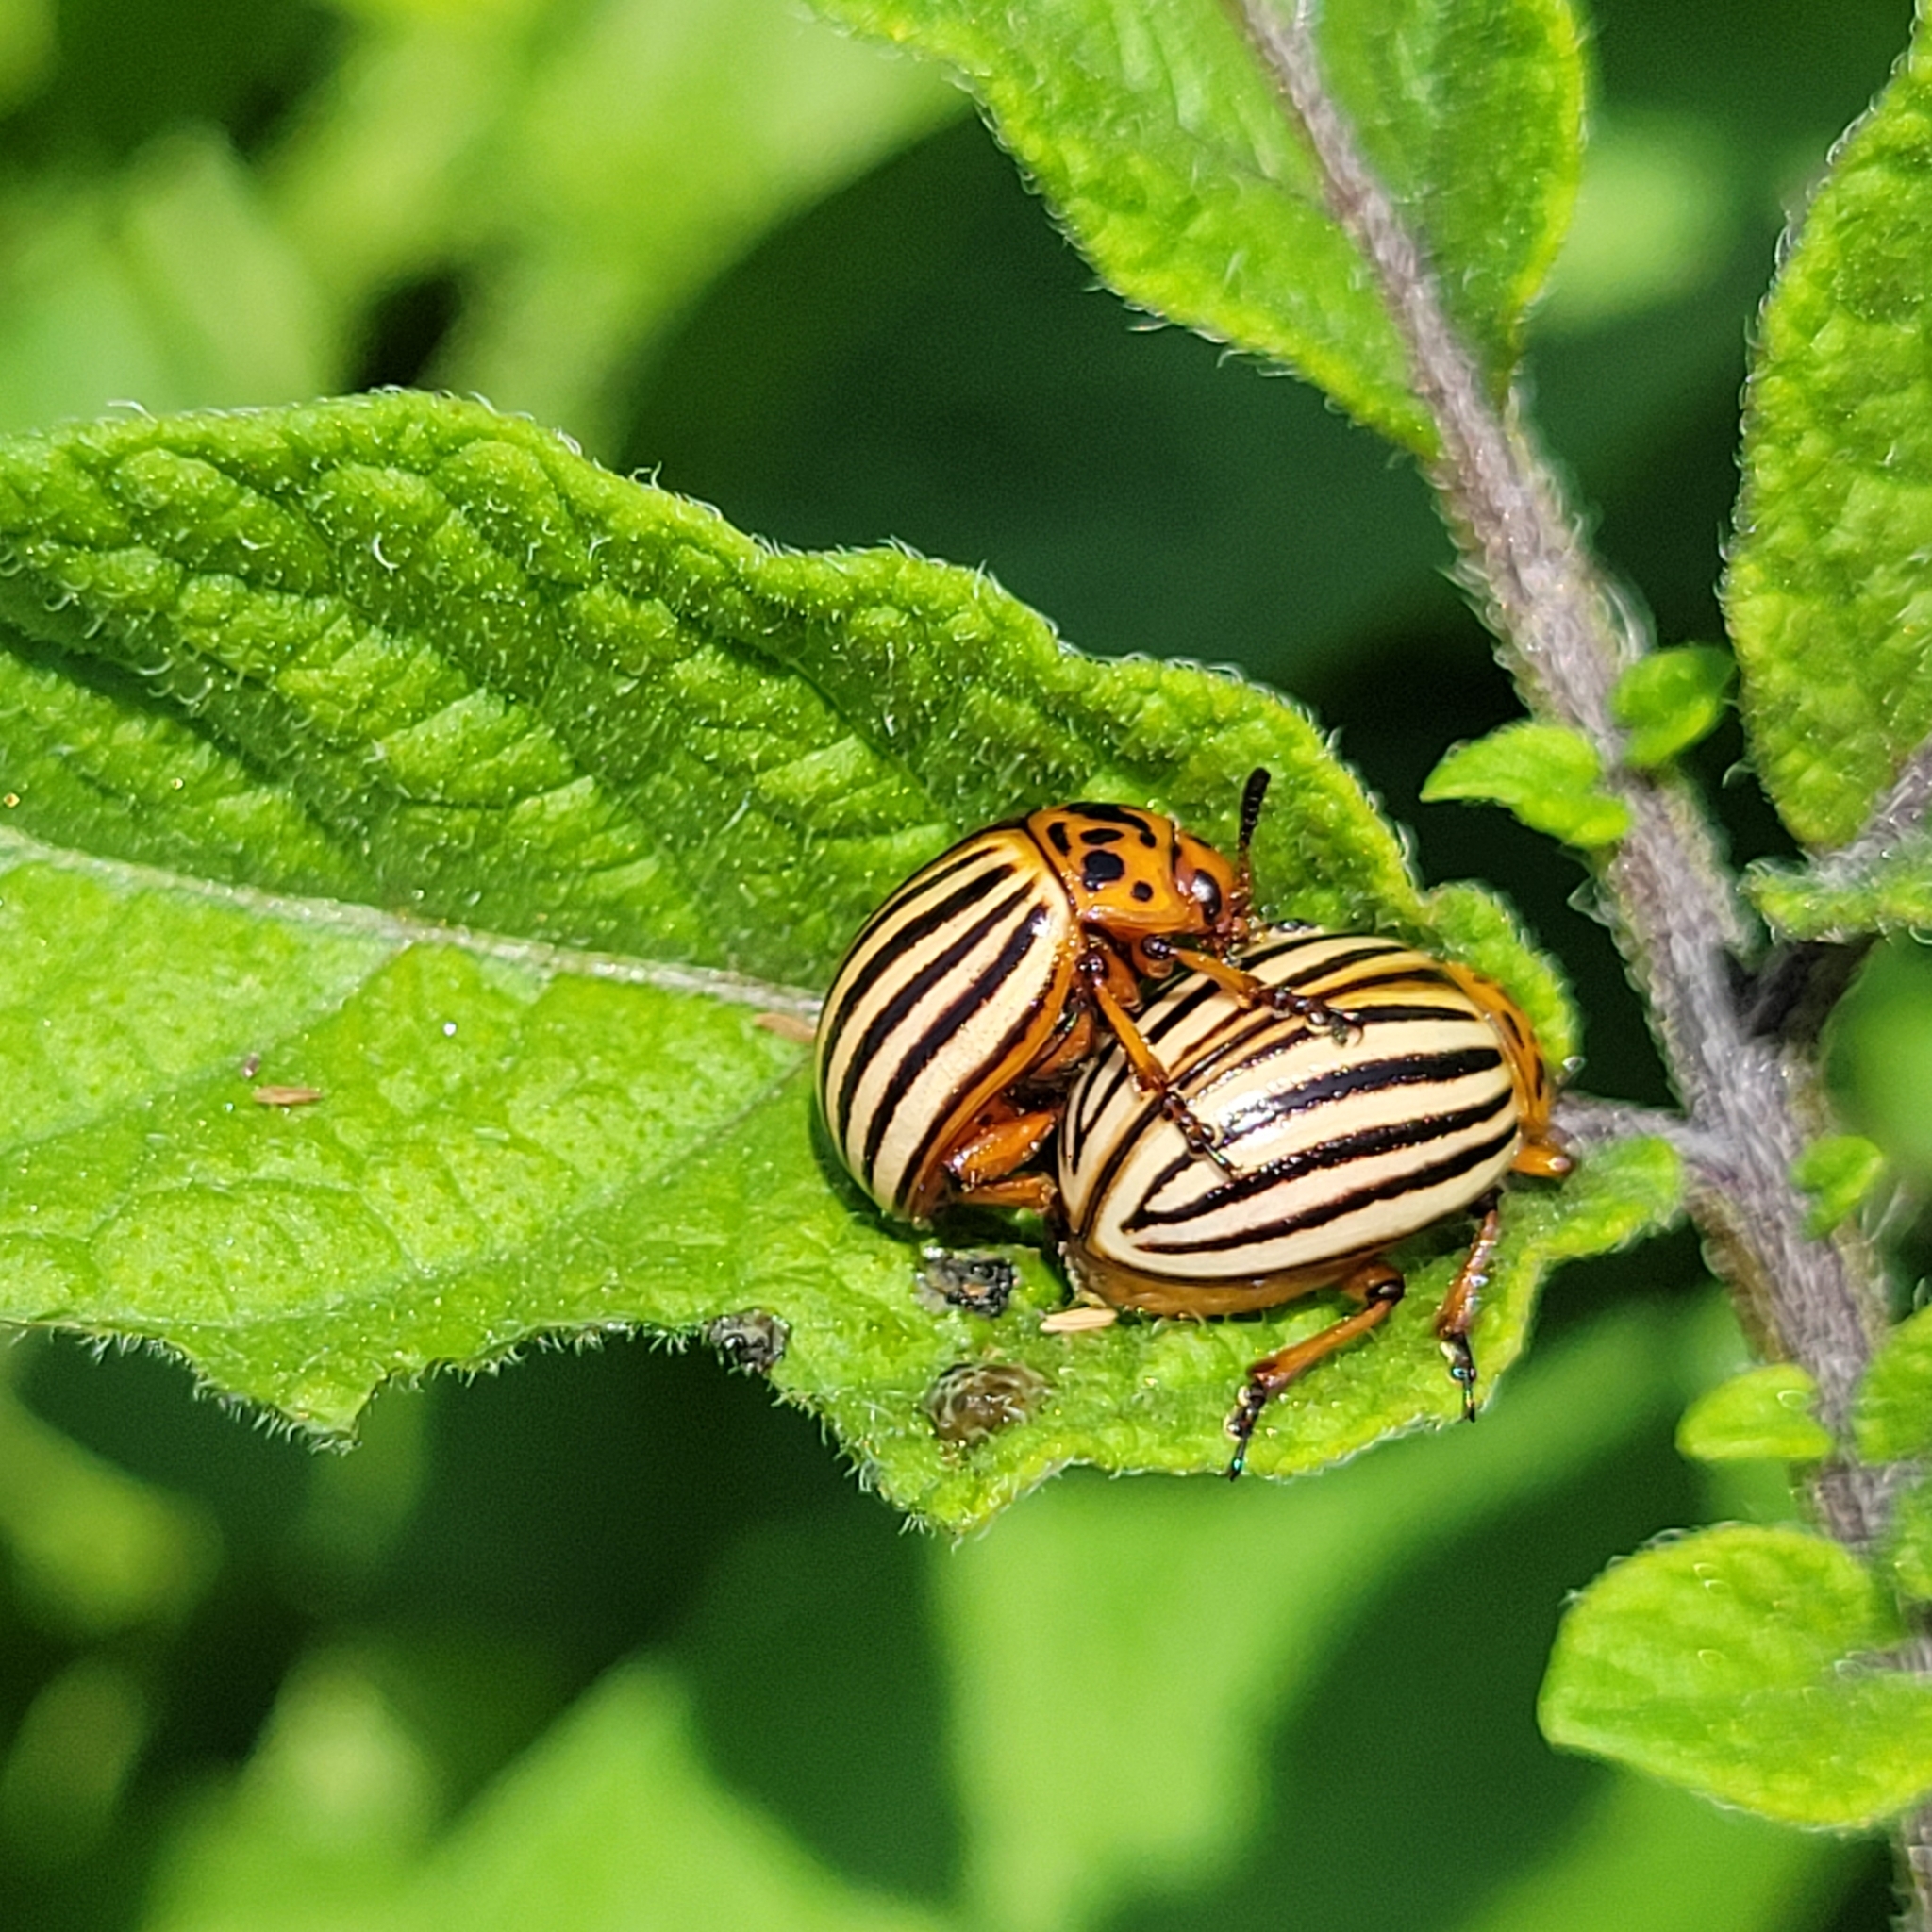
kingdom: Animalia
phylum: Arthropoda
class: Insecta
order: Coleoptera
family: Chrysomelidae
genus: Leptinotarsa
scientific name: Leptinotarsa decemlineata
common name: Colorado potato beetle
